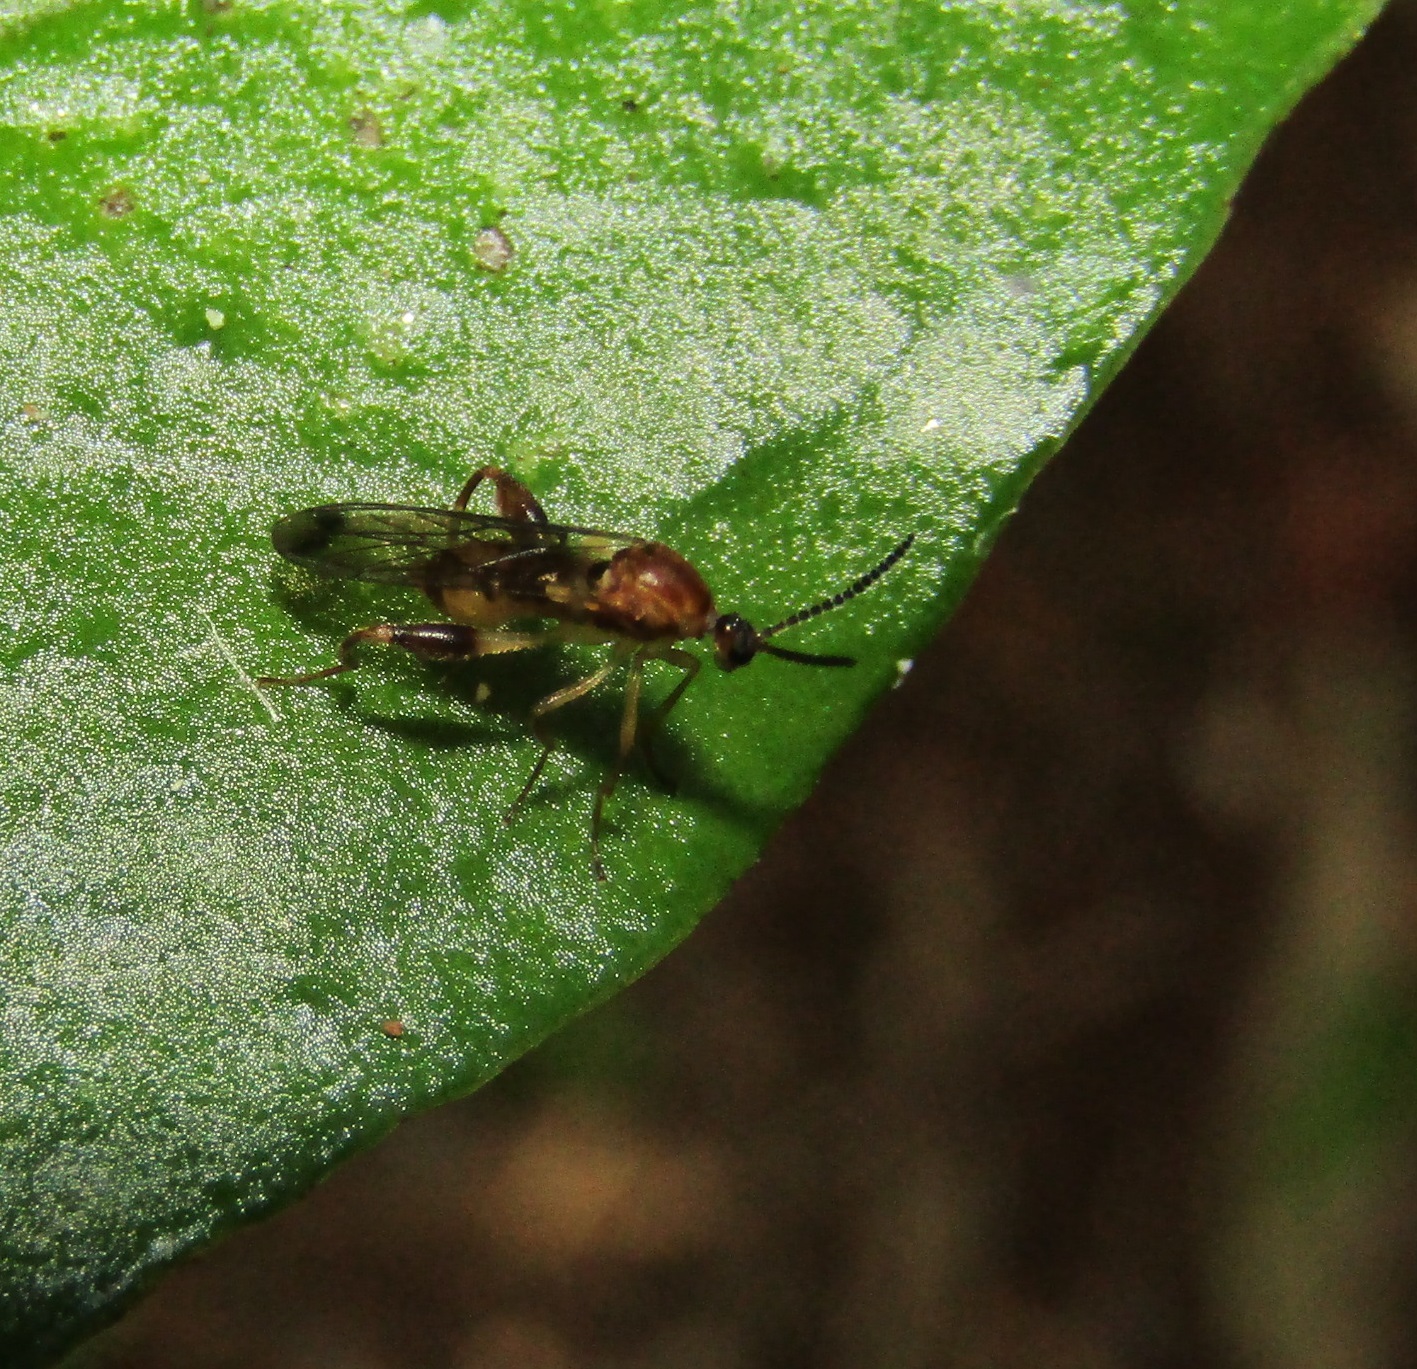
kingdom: Animalia
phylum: Arthropoda
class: Insecta
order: Diptera
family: Canthyloscelididae
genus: Canthyloscelis
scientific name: Canthyloscelis antennata
